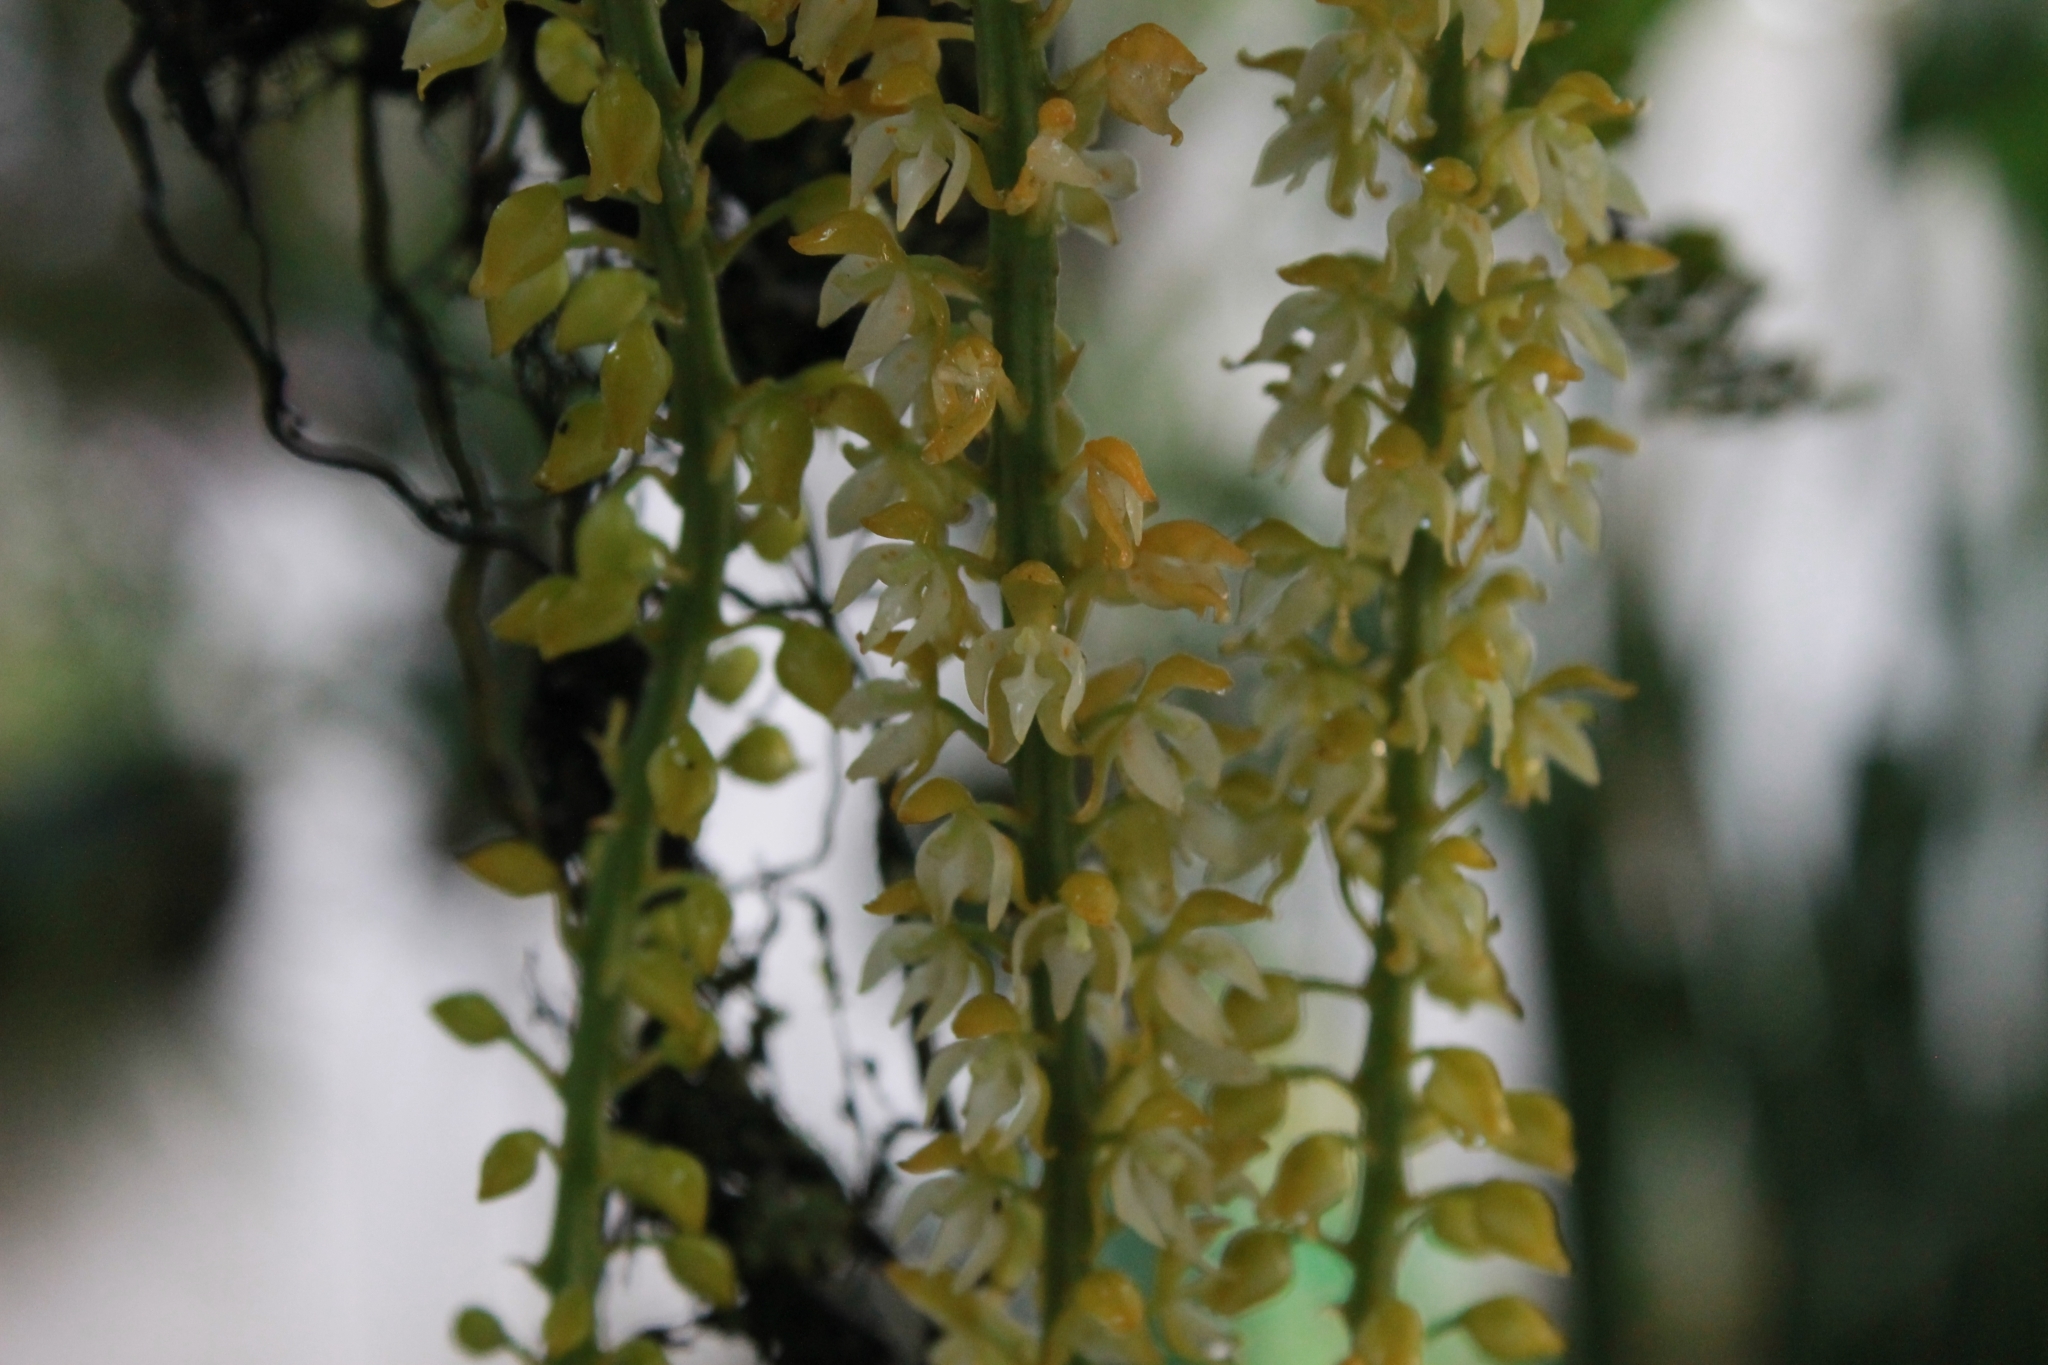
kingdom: Plantae
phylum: Tracheophyta
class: Liliopsida
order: Asparagales
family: Orchidaceae
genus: Notylia
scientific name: Notylia barkeri
